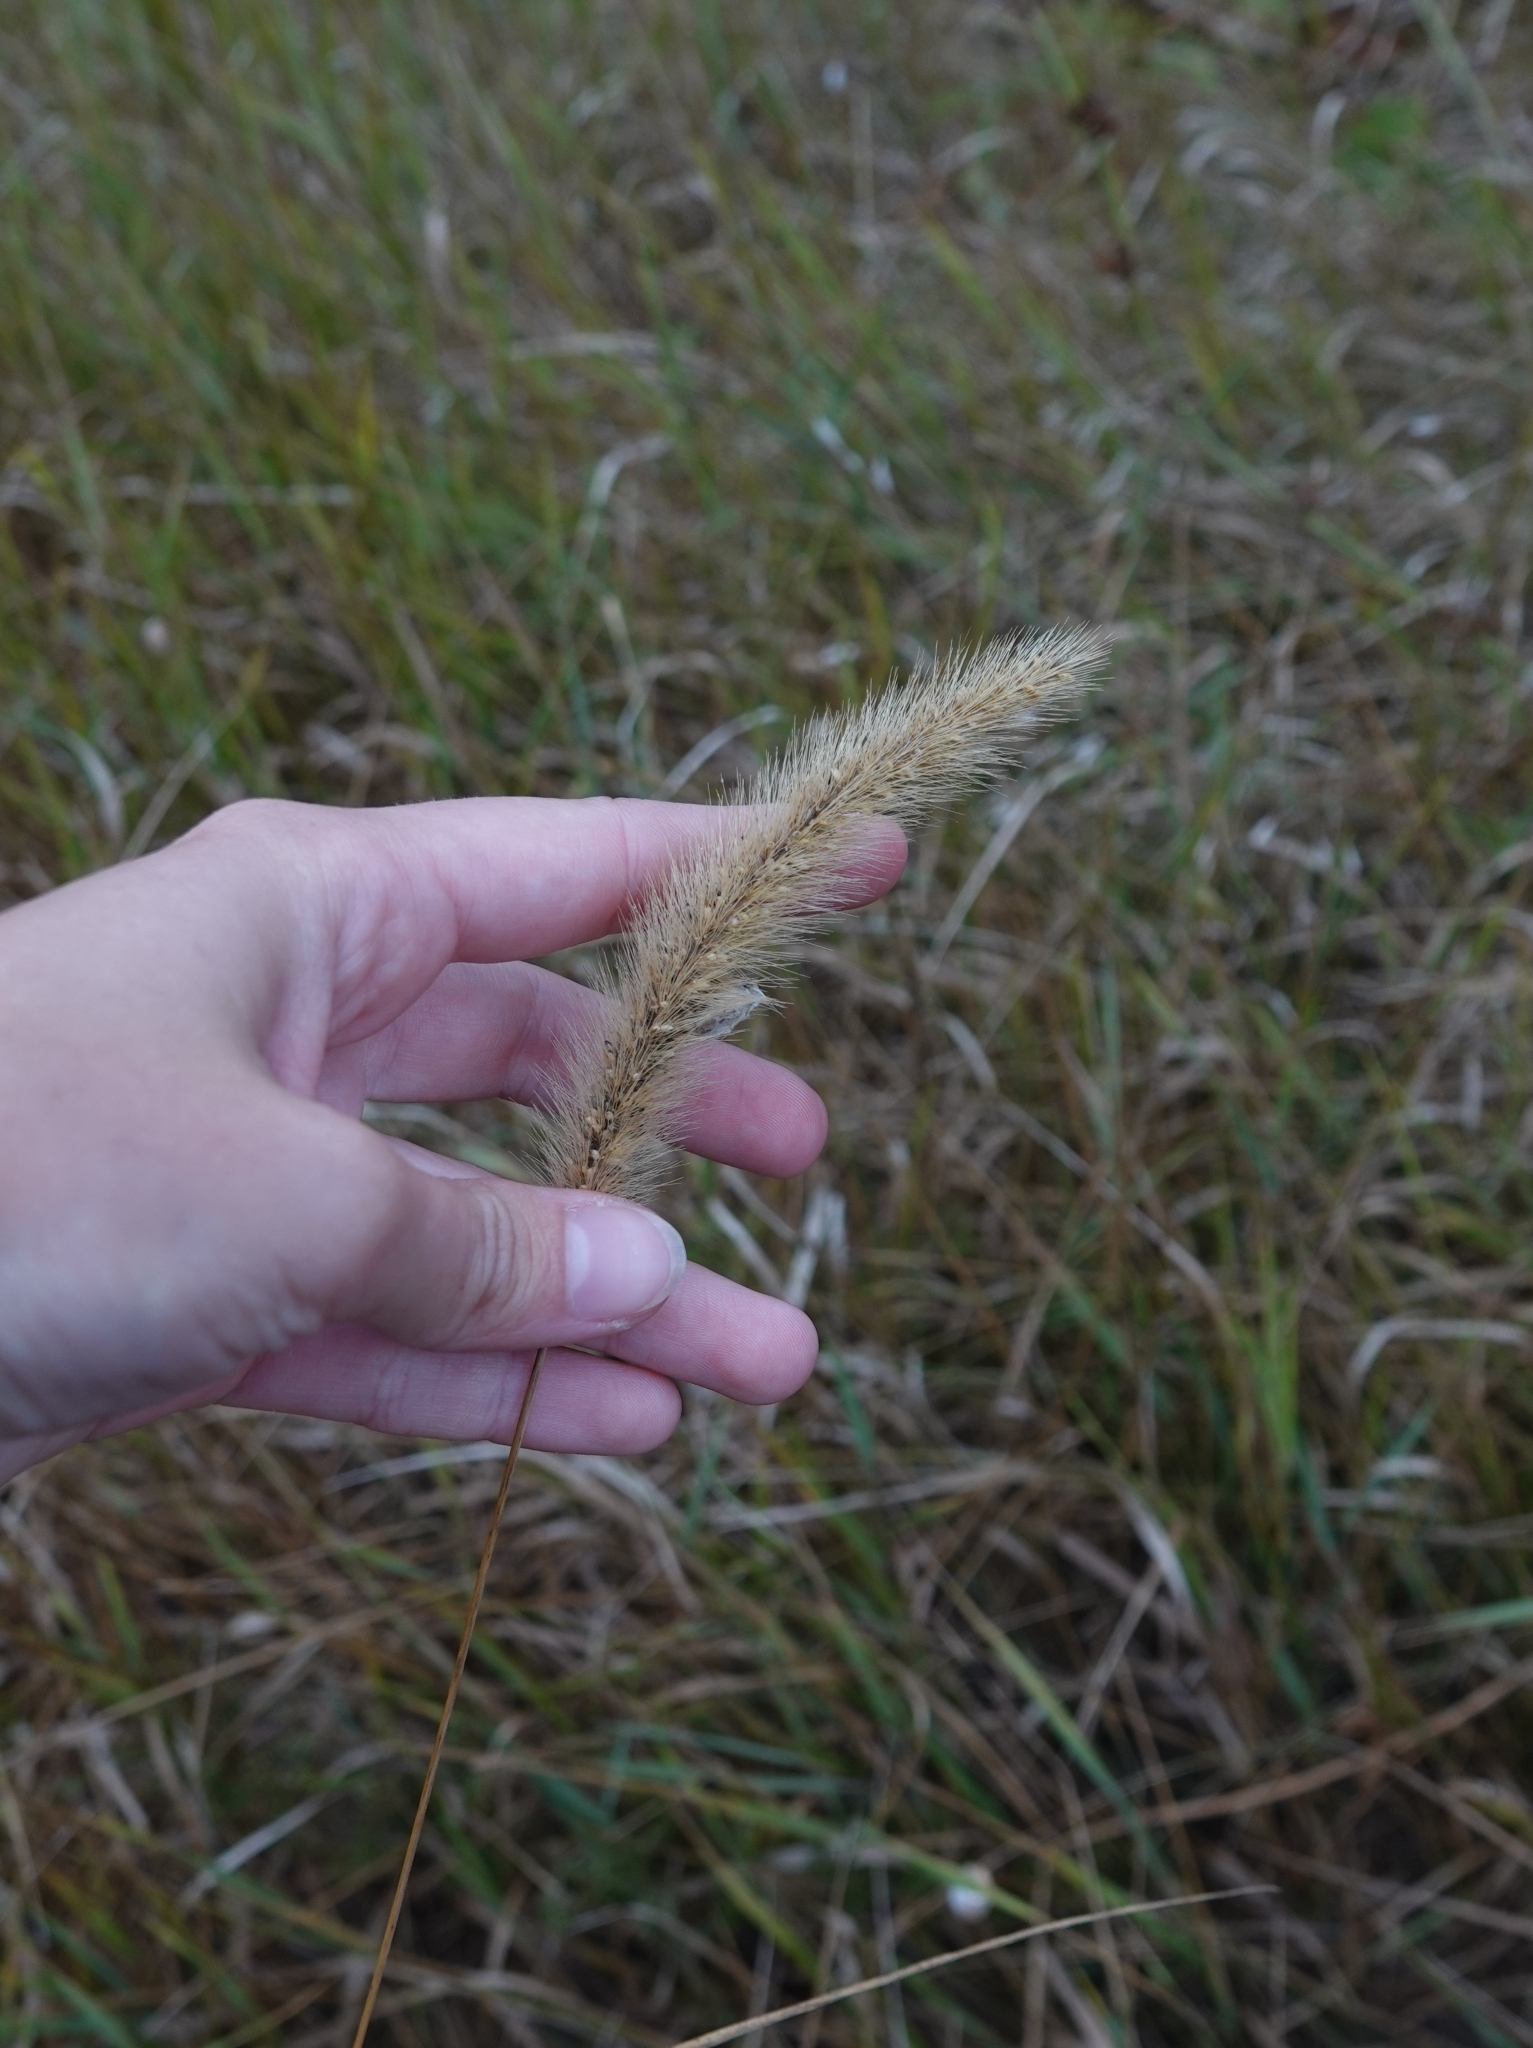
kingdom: Plantae
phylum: Tracheophyta
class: Liliopsida
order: Poales
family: Poaceae
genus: Setaria
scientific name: Setaria viridis
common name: Green bristlegrass
